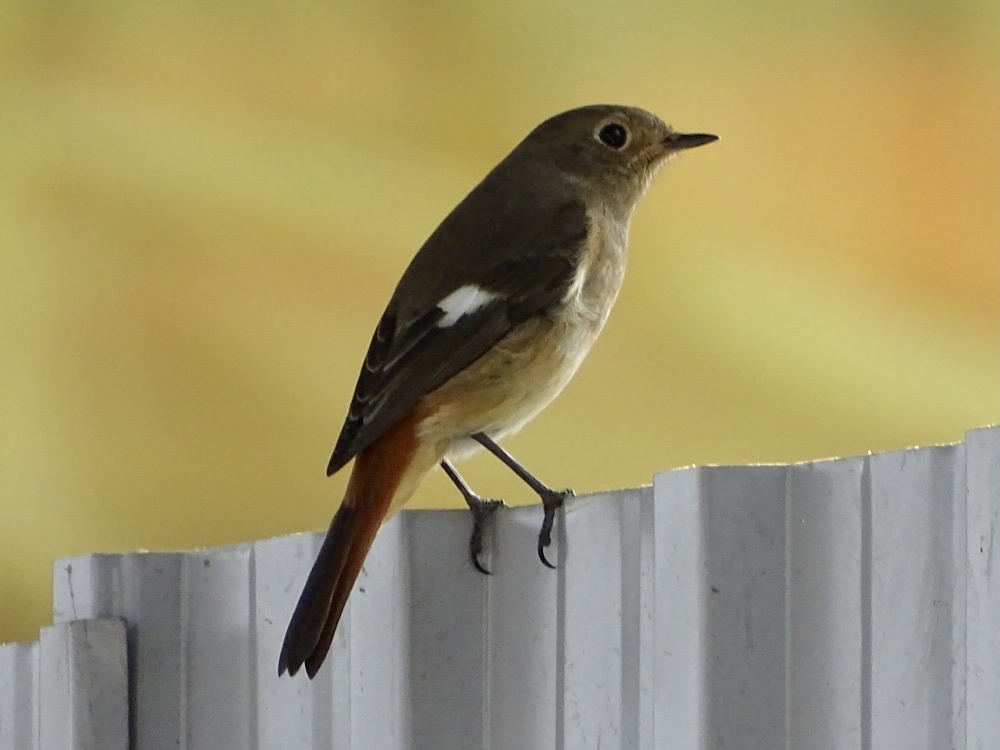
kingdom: Animalia
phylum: Chordata
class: Aves
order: Passeriformes
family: Muscicapidae
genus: Phoenicurus
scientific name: Phoenicurus auroreus
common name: Daurian redstart
